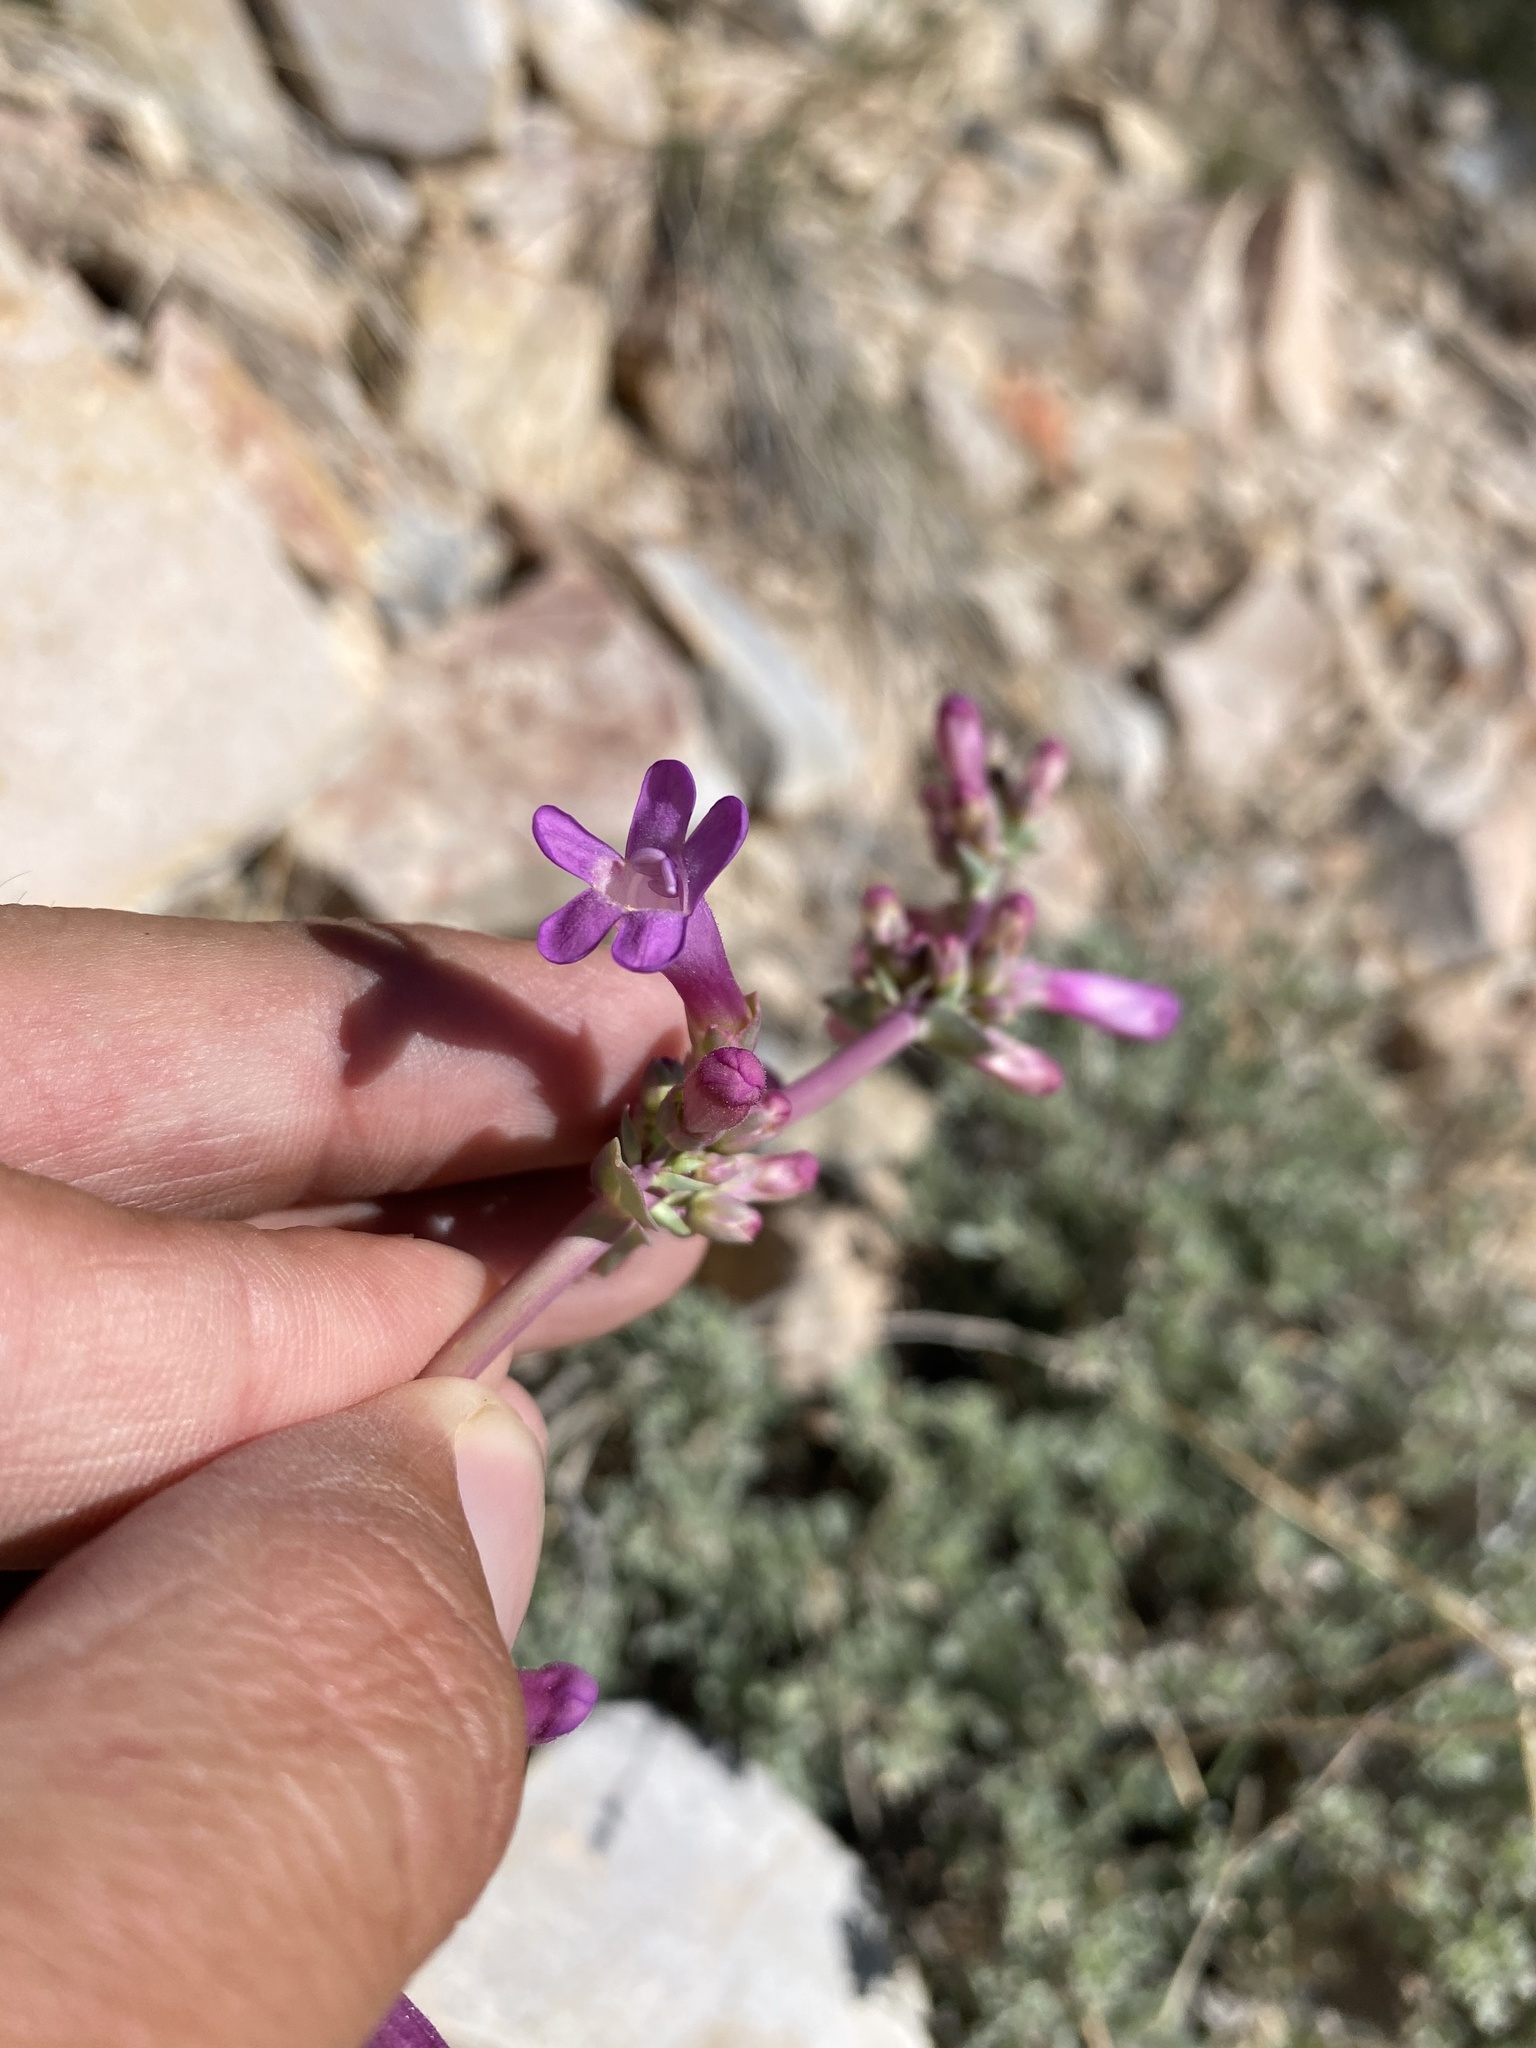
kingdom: Plantae
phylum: Tracheophyta
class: Magnoliopsida
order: Lamiales
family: Plantaginaceae
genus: Penstemon
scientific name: Penstemon confusus
